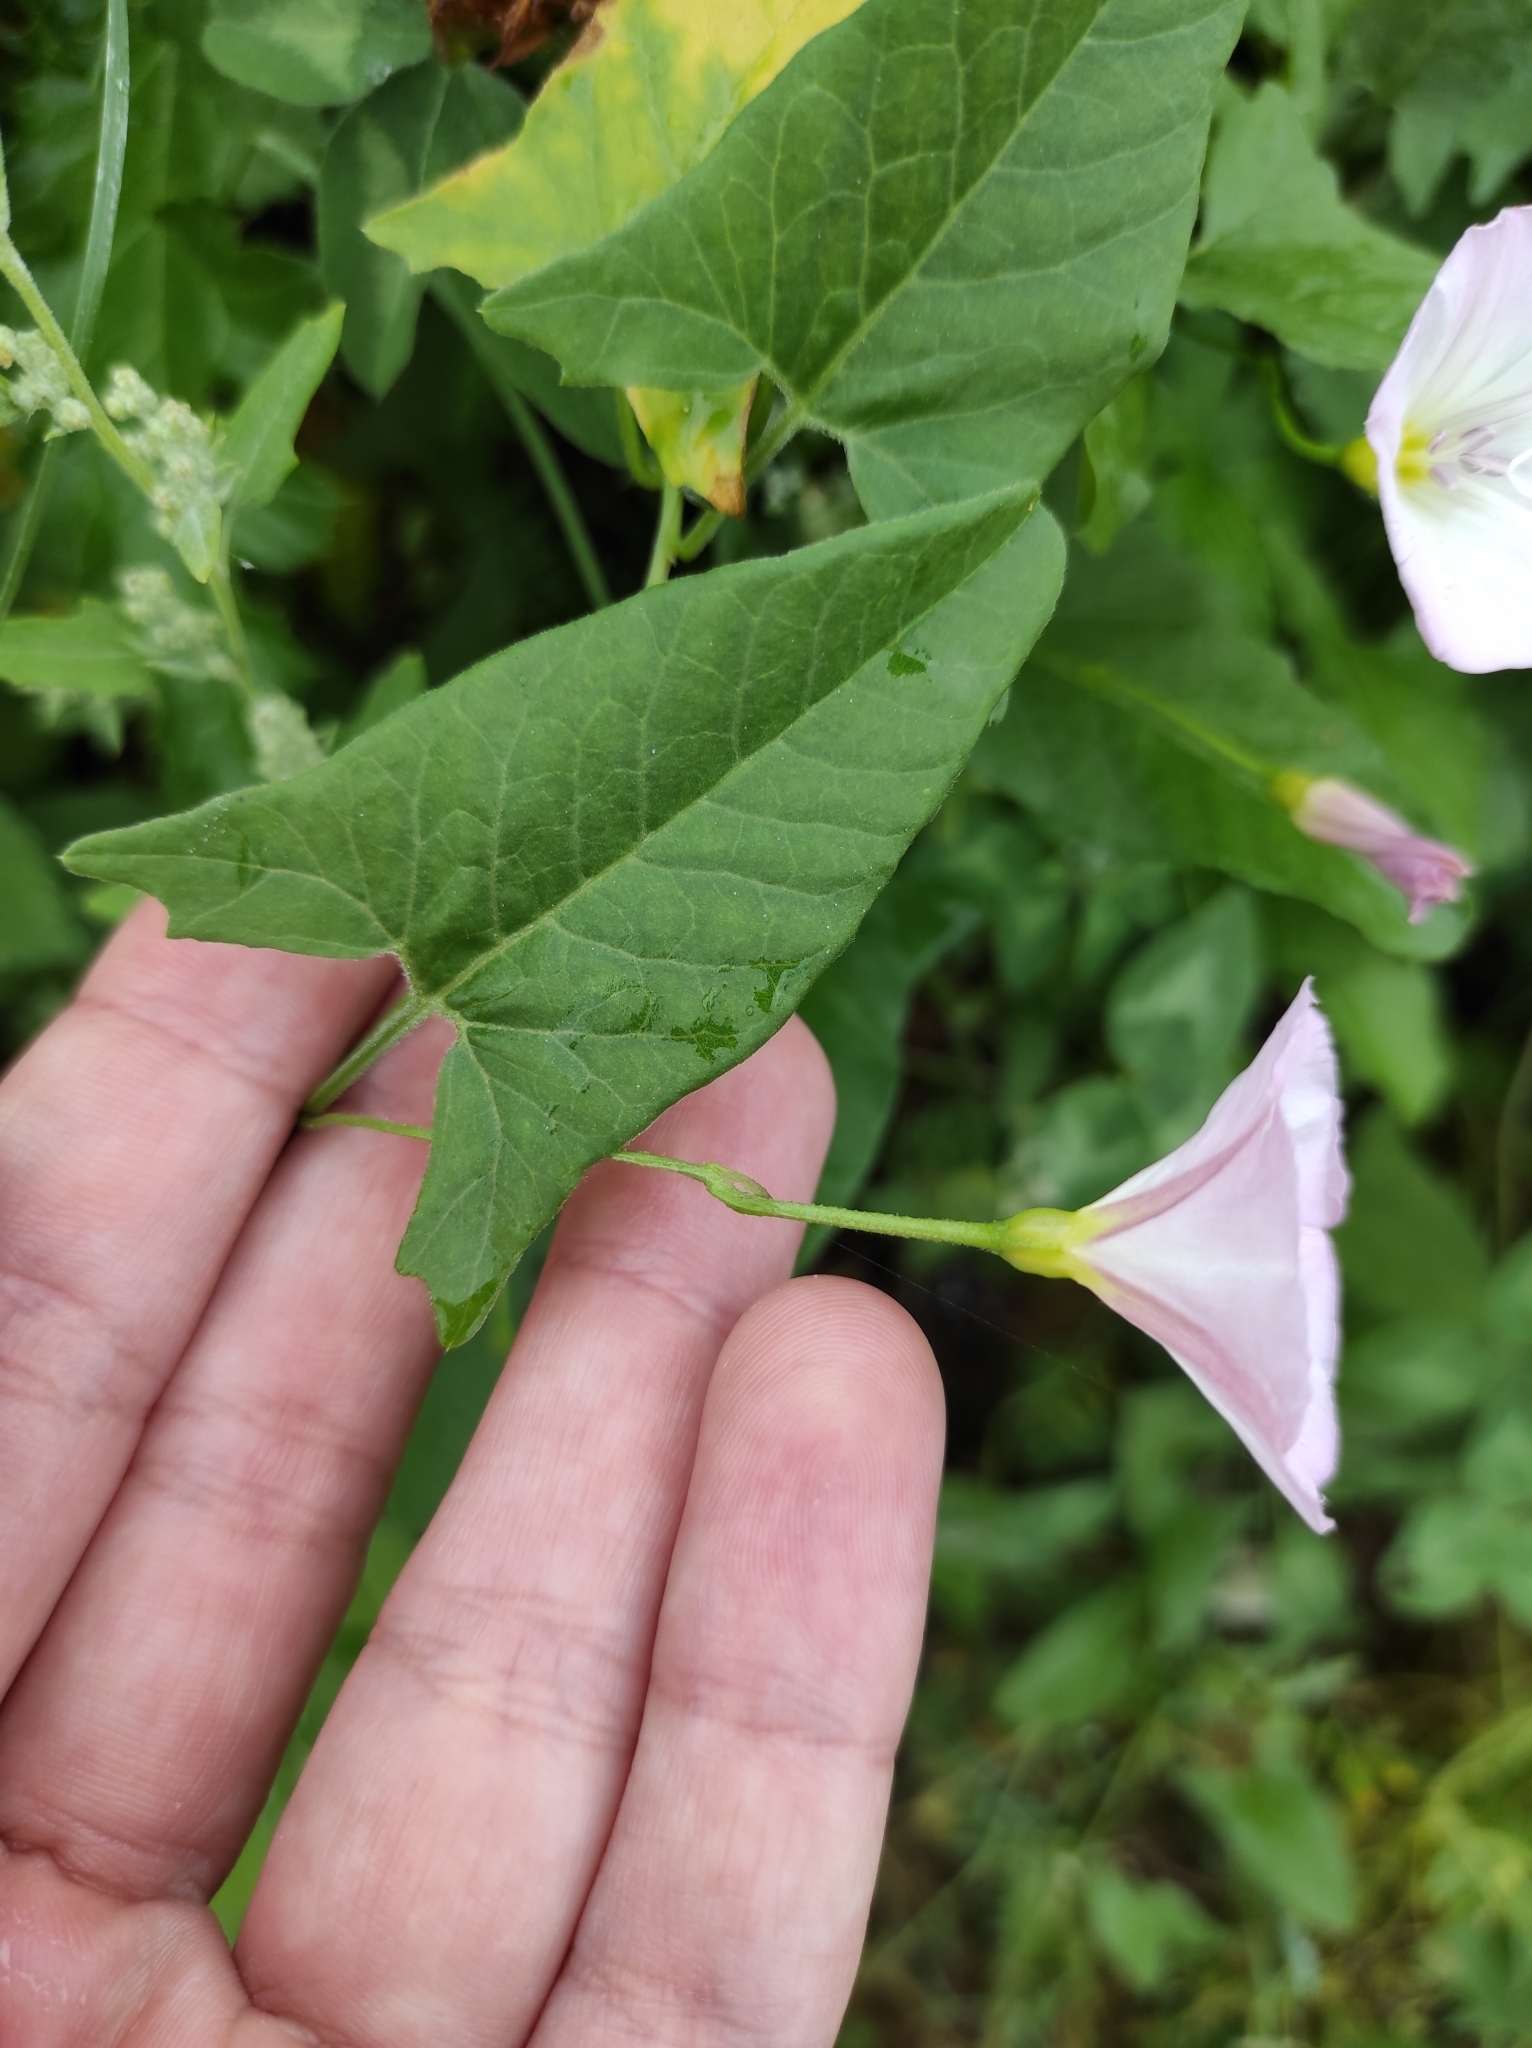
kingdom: Plantae
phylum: Tracheophyta
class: Magnoliopsida
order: Solanales
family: Convolvulaceae
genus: Convolvulus
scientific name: Convolvulus arvensis
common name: Field bindweed
